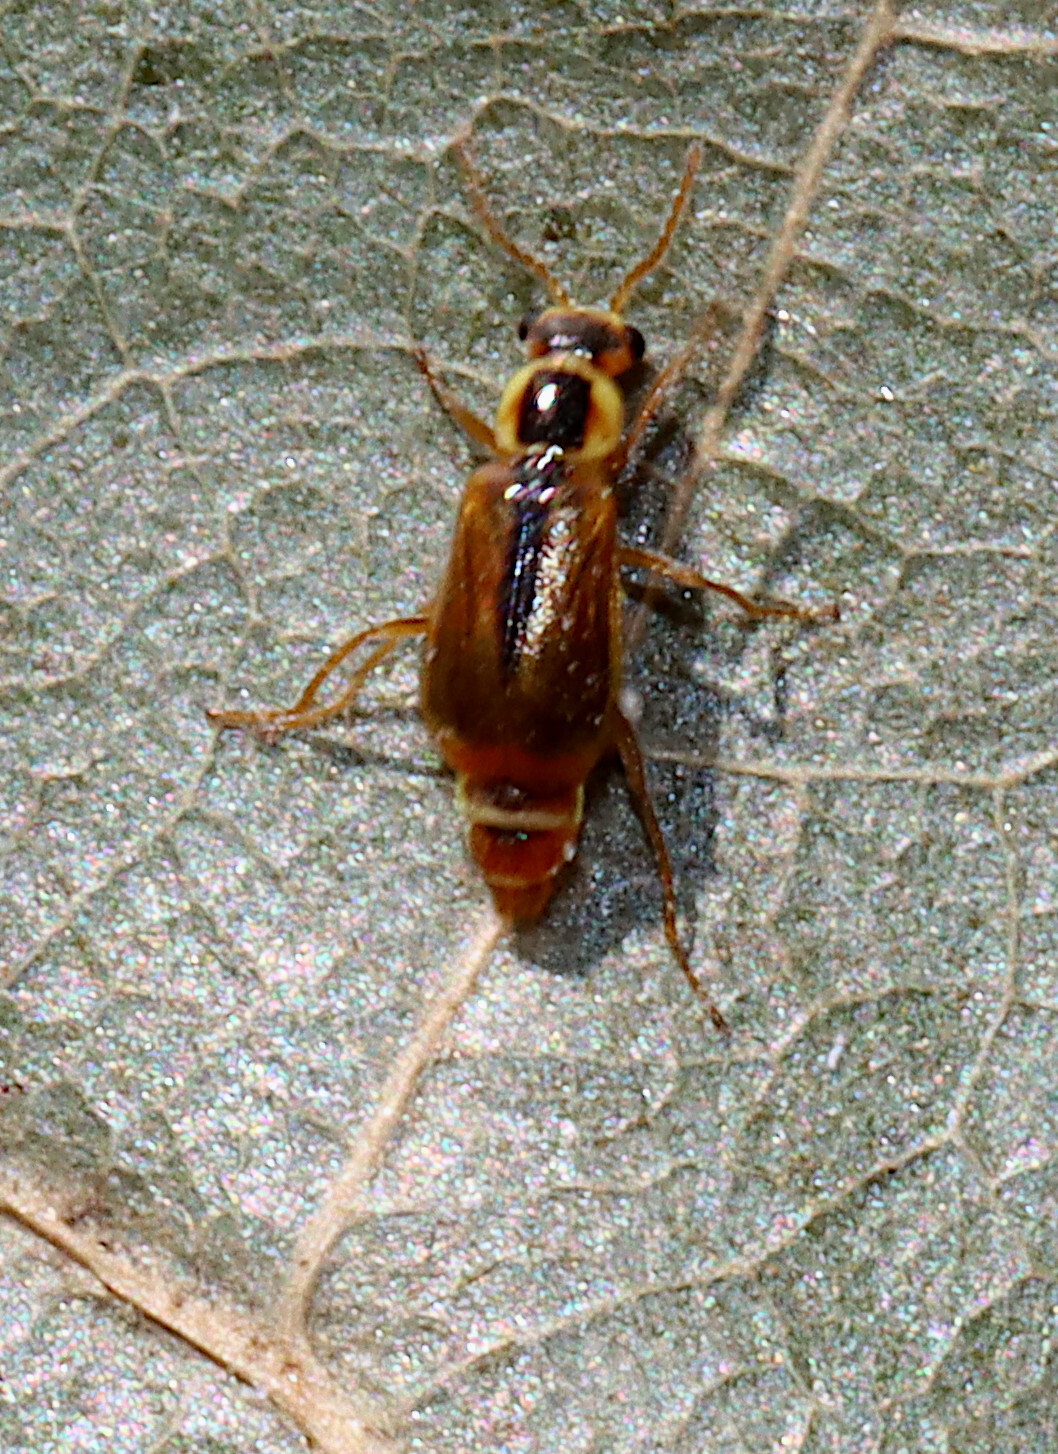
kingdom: Animalia
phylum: Arthropoda
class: Insecta
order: Coleoptera
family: Malachiidae
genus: Attalus
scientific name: Attalus
